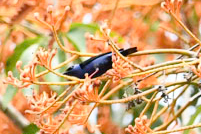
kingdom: Animalia
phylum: Chordata
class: Aves
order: Passeriformes
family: Thraupidae
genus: Cyanerpes
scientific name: Cyanerpes cyaneus
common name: Red-legged honeycreeper
